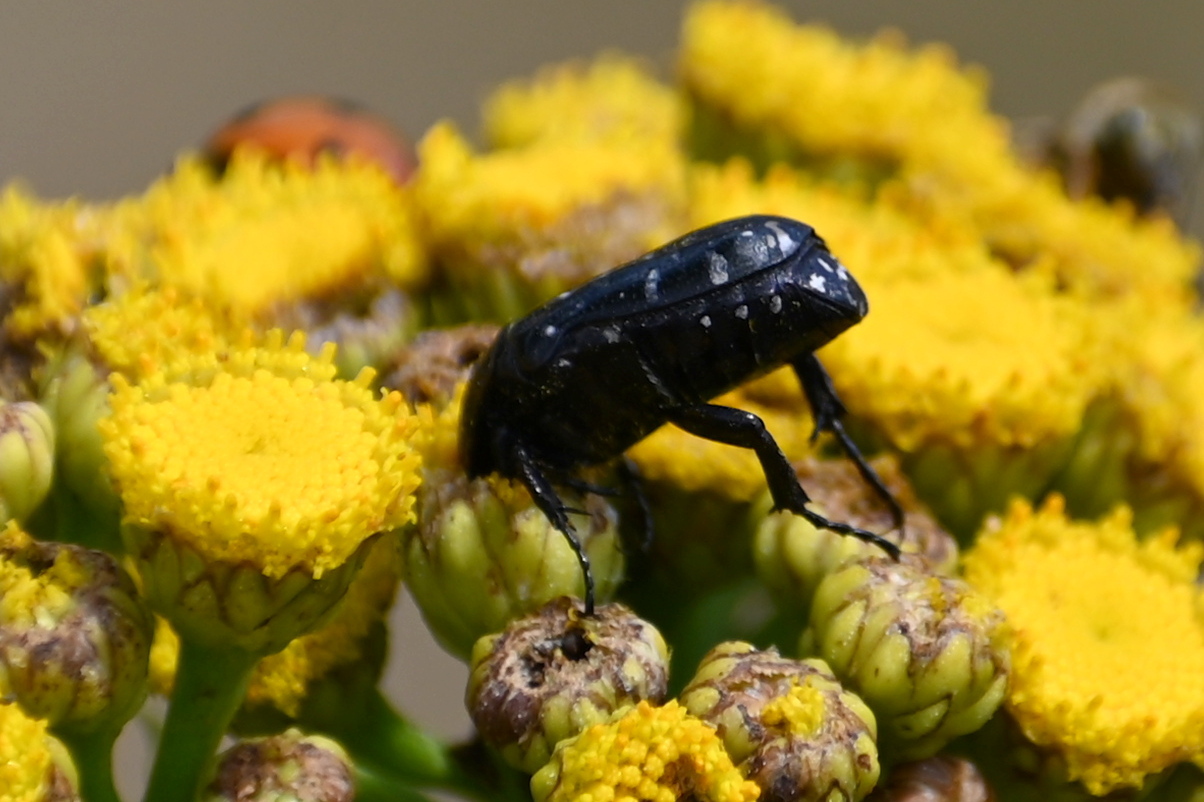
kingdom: Animalia
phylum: Arthropoda
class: Insecta
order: Coleoptera
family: Scarabaeidae
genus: Oxythyrea
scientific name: Oxythyrea funesta
